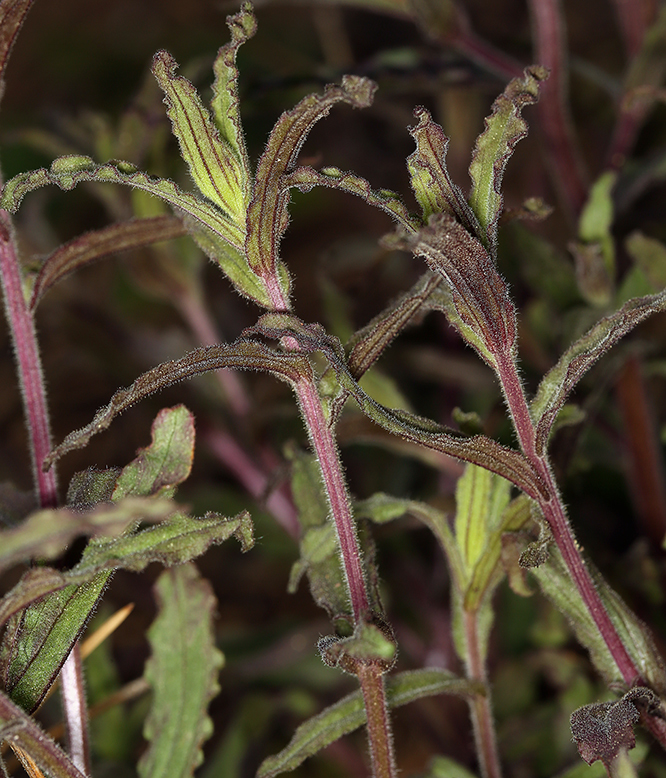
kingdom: Plantae
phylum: Tracheophyta
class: Magnoliopsida
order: Lamiales
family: Orobanchaceae
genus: Castilleja
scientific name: Castilleja applegatei
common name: Wavy-leaf paintbrush
